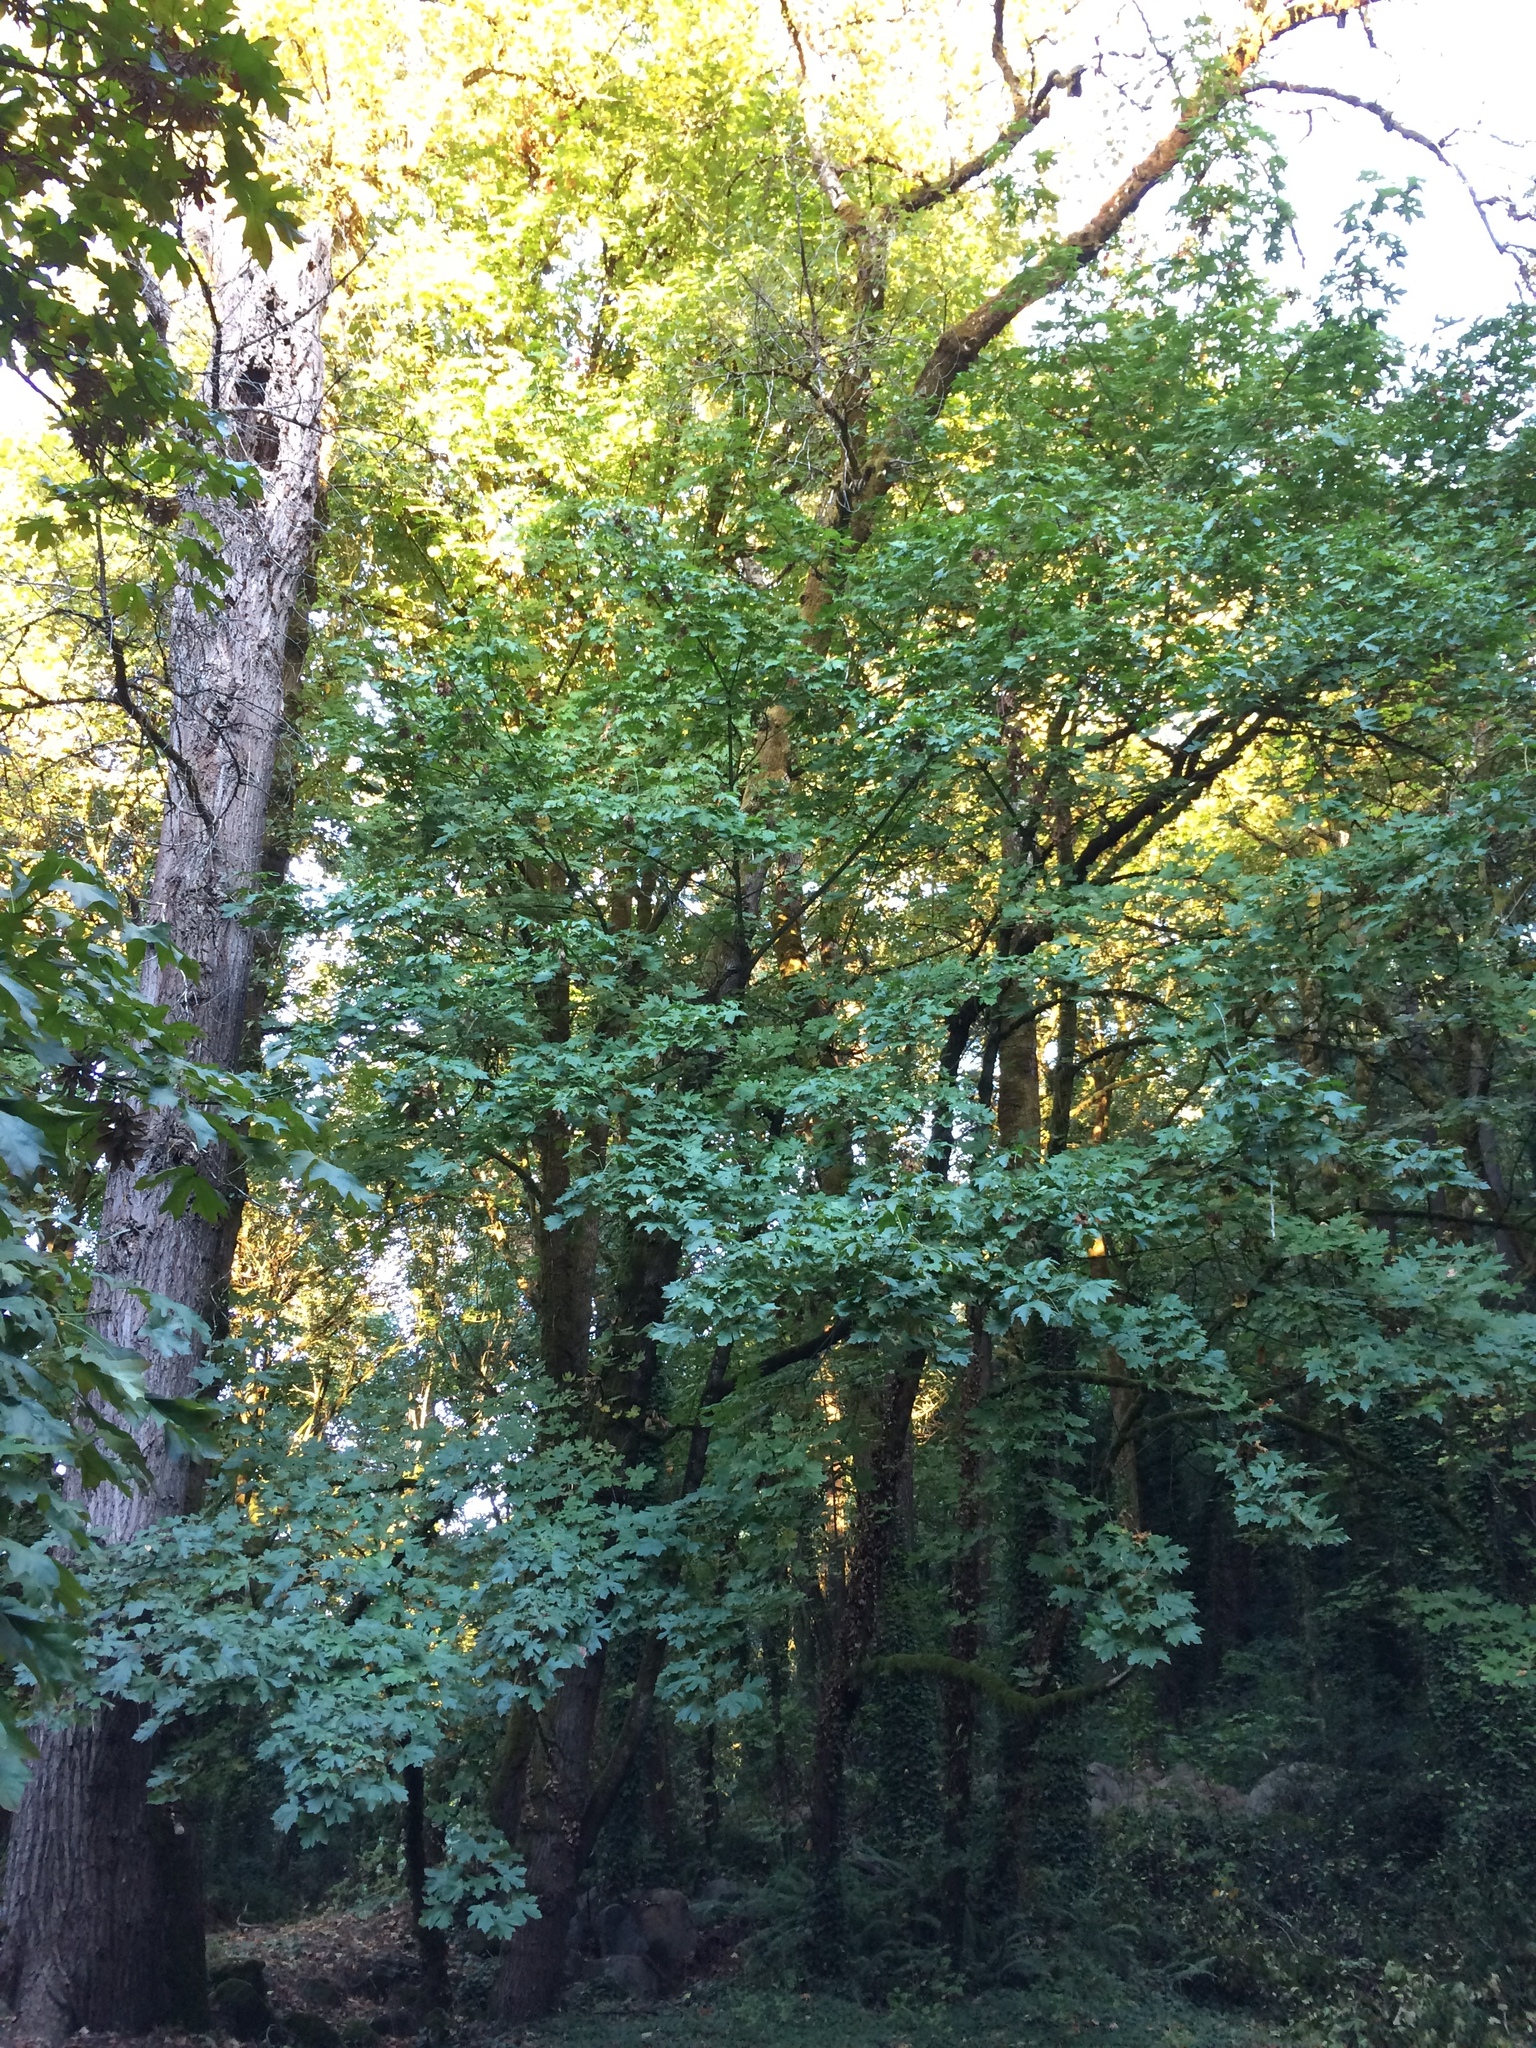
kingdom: Plantae
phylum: Tracheophyta
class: Magnoliopsida
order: Sapindales
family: Sapindaceae
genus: Acer
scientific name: Acer macrophyllum
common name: Oregon maple
